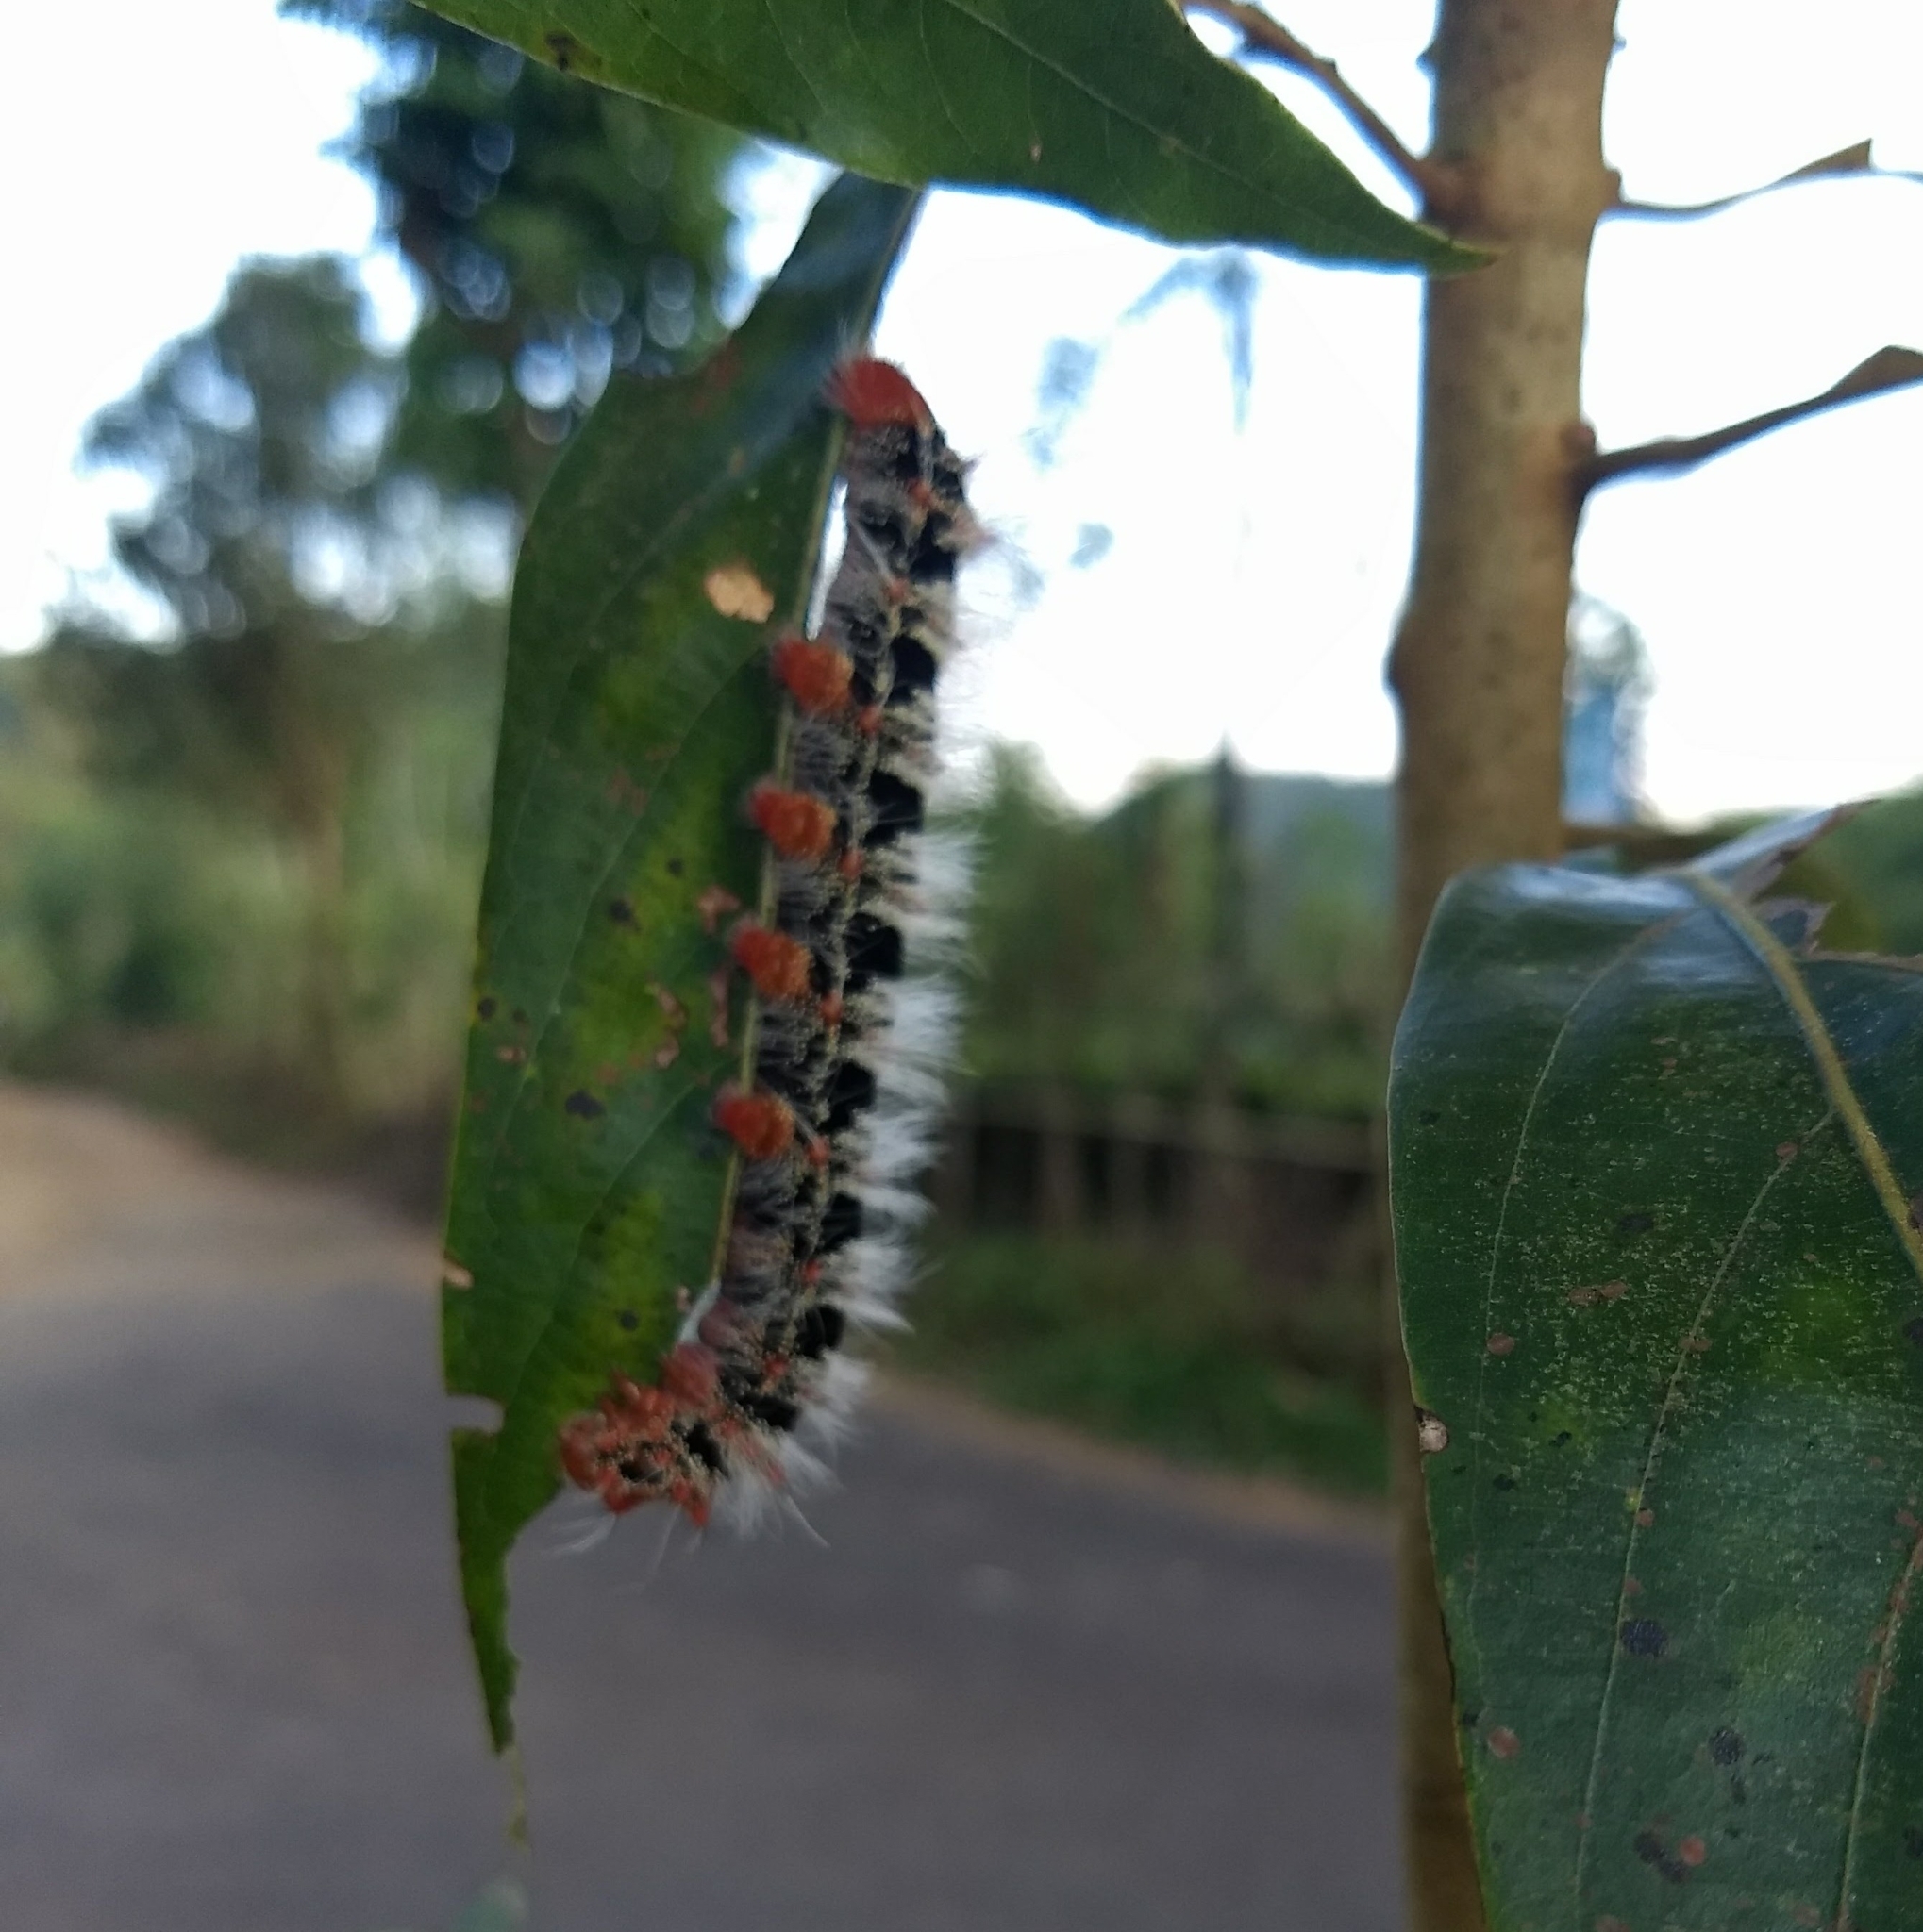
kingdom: Animalia
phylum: Arthropoda
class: Insecta
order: Lepidoptera
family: Saturniidae
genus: Cricula
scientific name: Cricula trifenestrata
